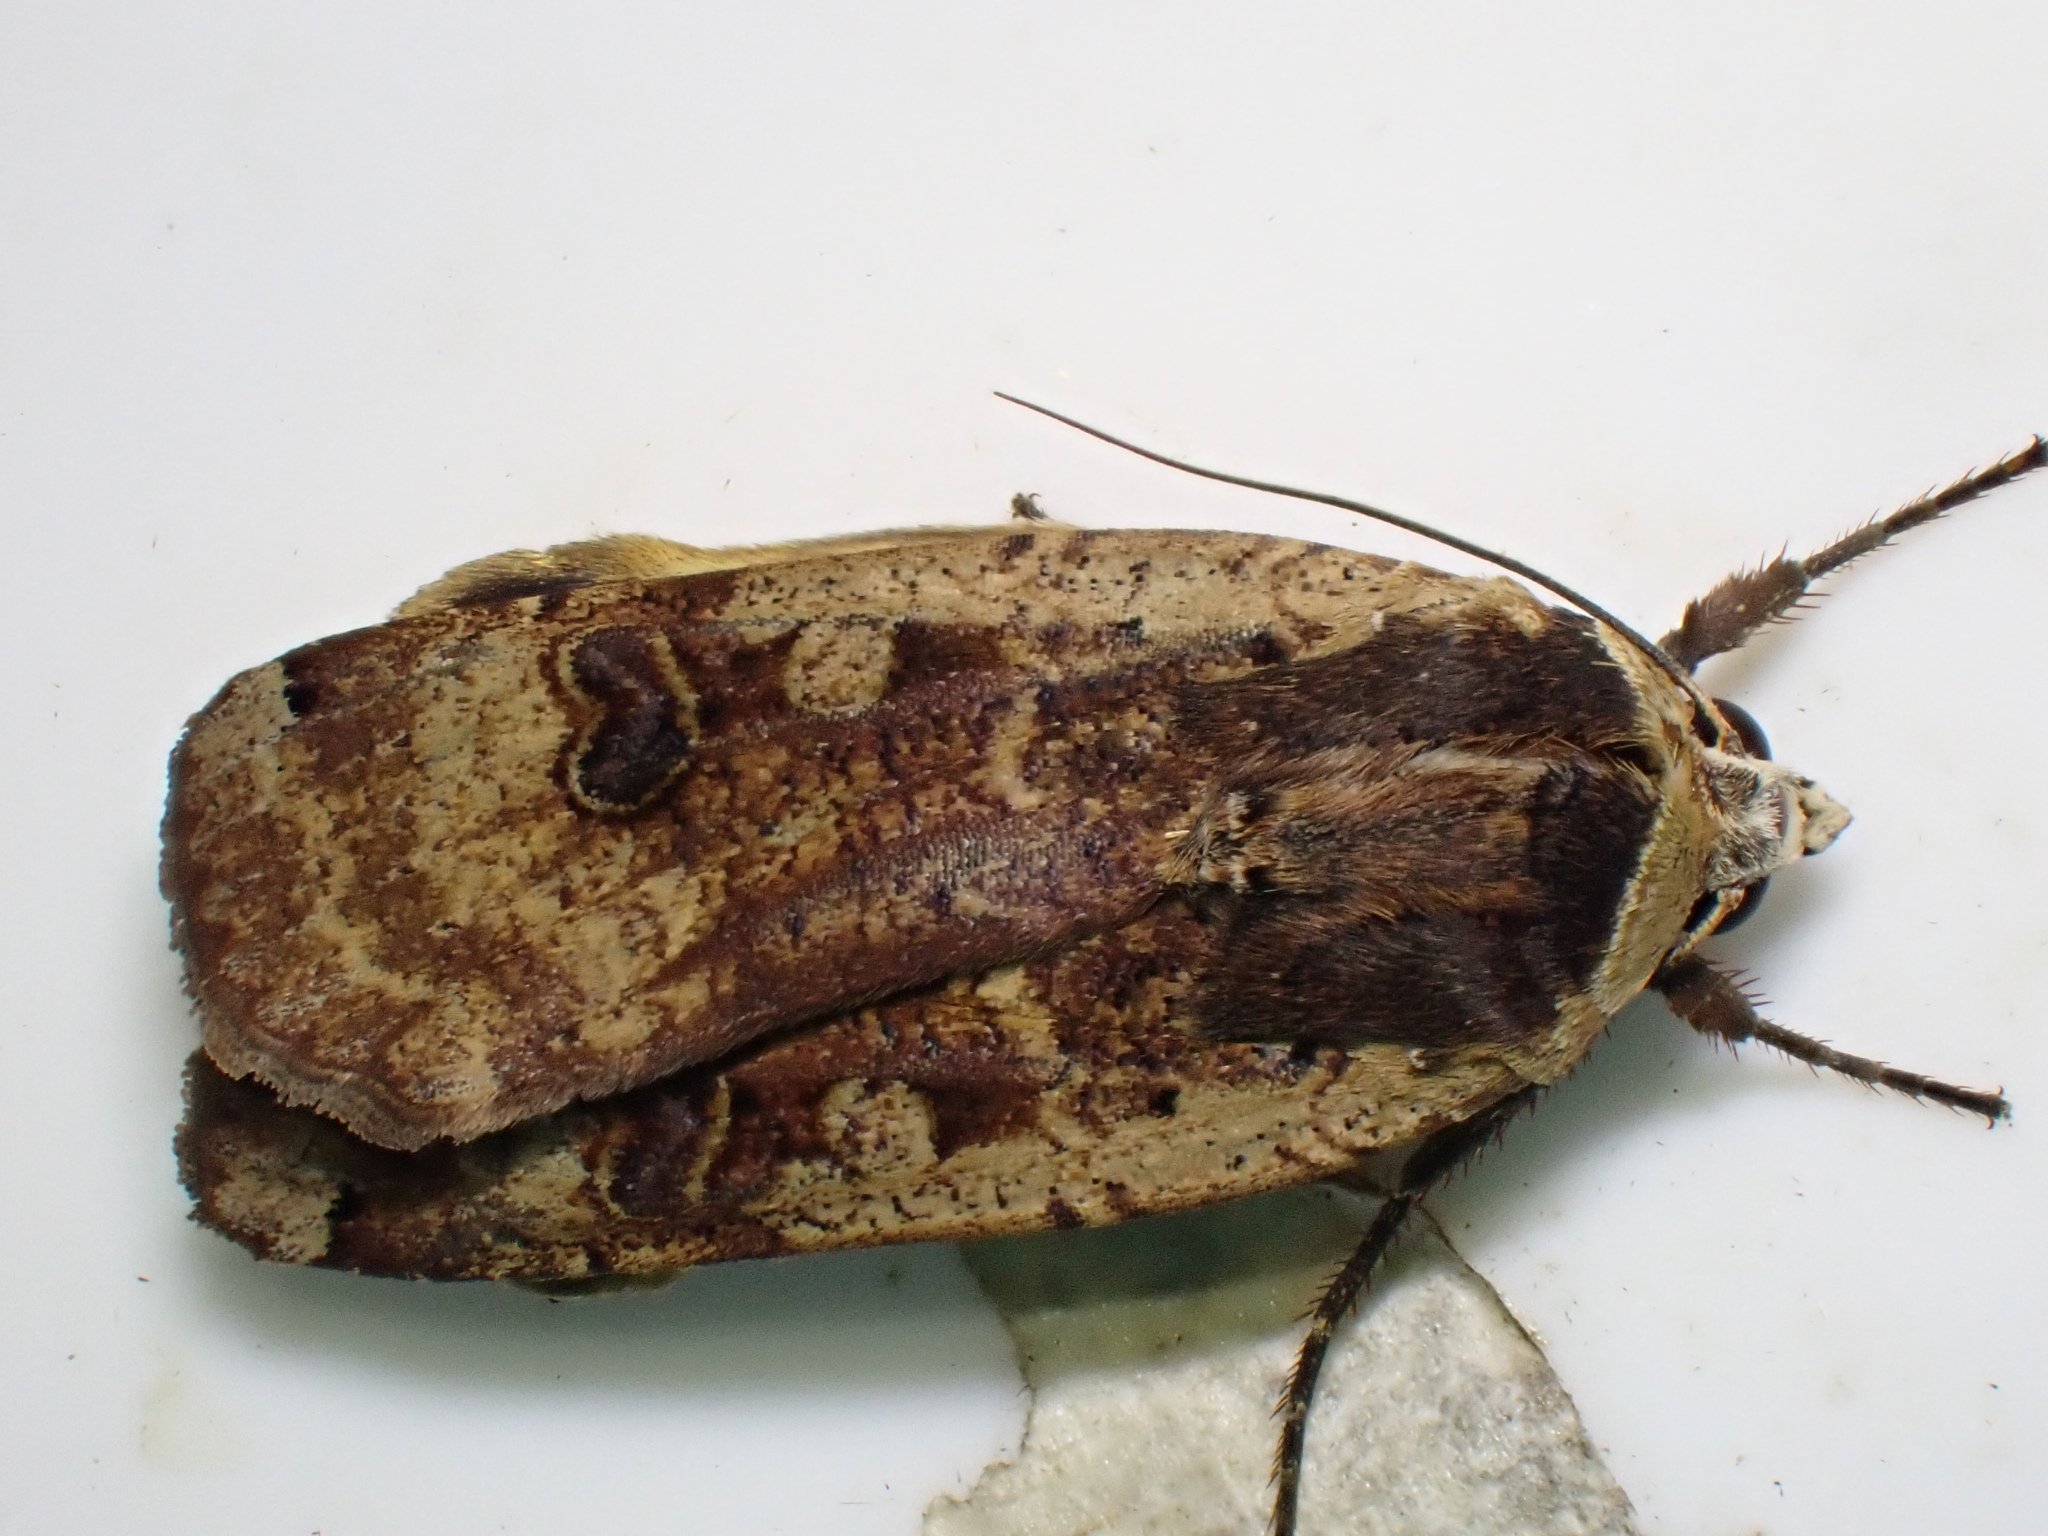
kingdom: Animalia
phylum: Arthropoda
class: Insecta
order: Lepidoptera
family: Noctuidae
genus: Noctua
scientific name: Noctua pronuba
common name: Large yellow underwing
